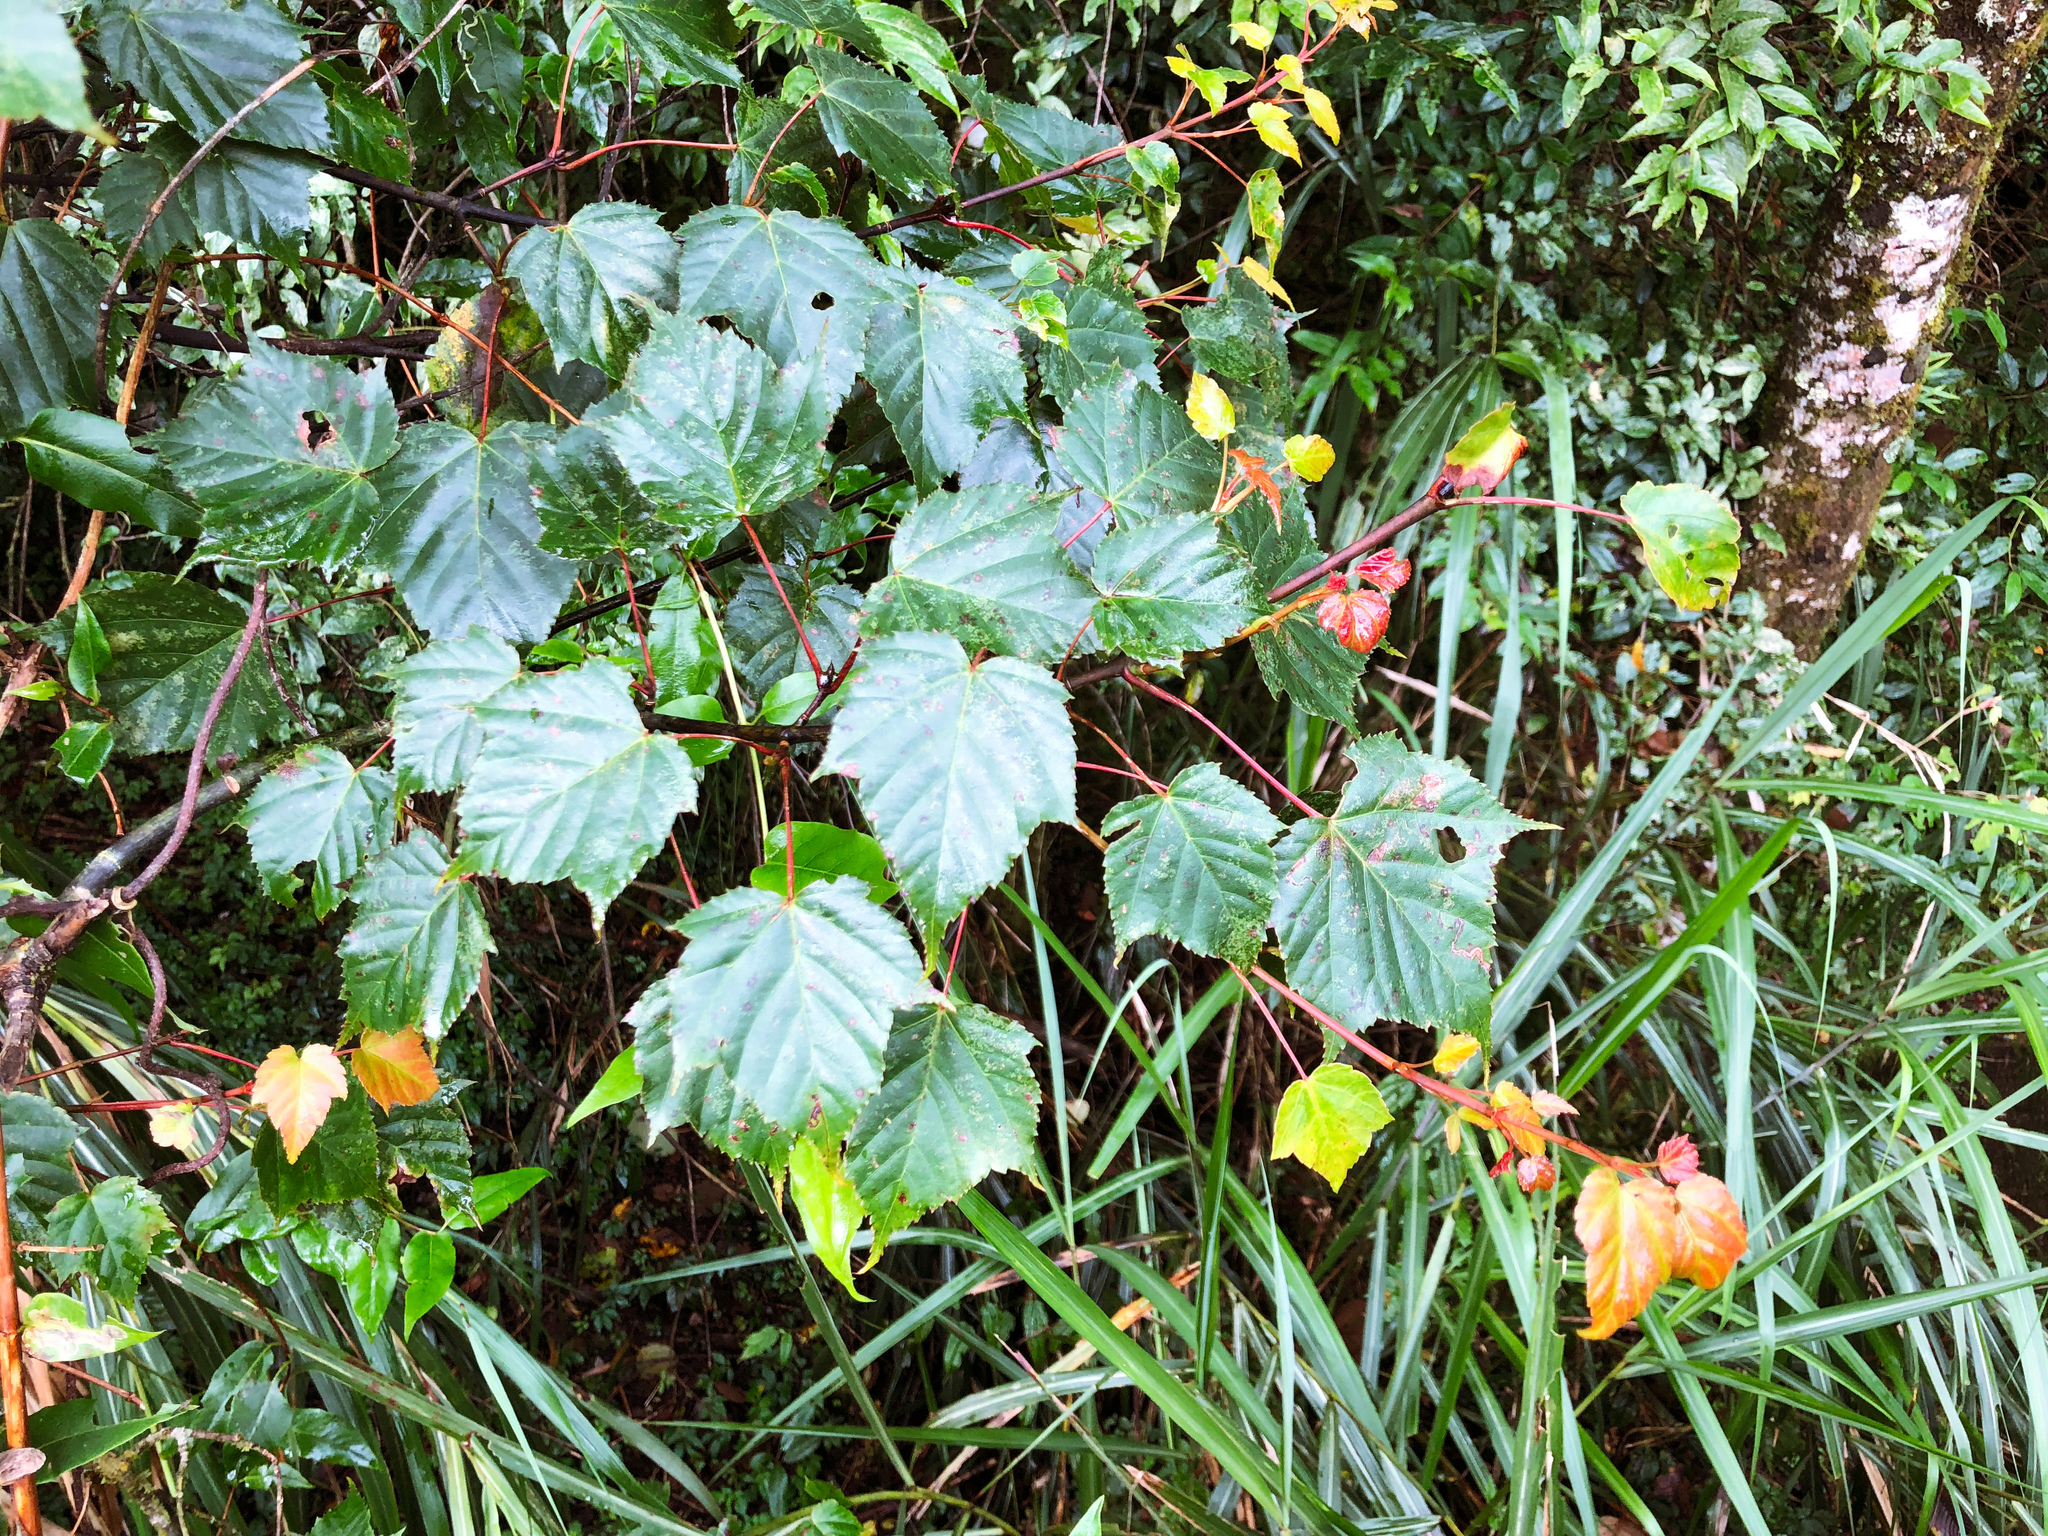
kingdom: Plantae
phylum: Tracheophyta
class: Magnoliopsida
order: Sapindales
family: Sapindaceae
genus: Acer
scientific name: Acer caudatifolium
